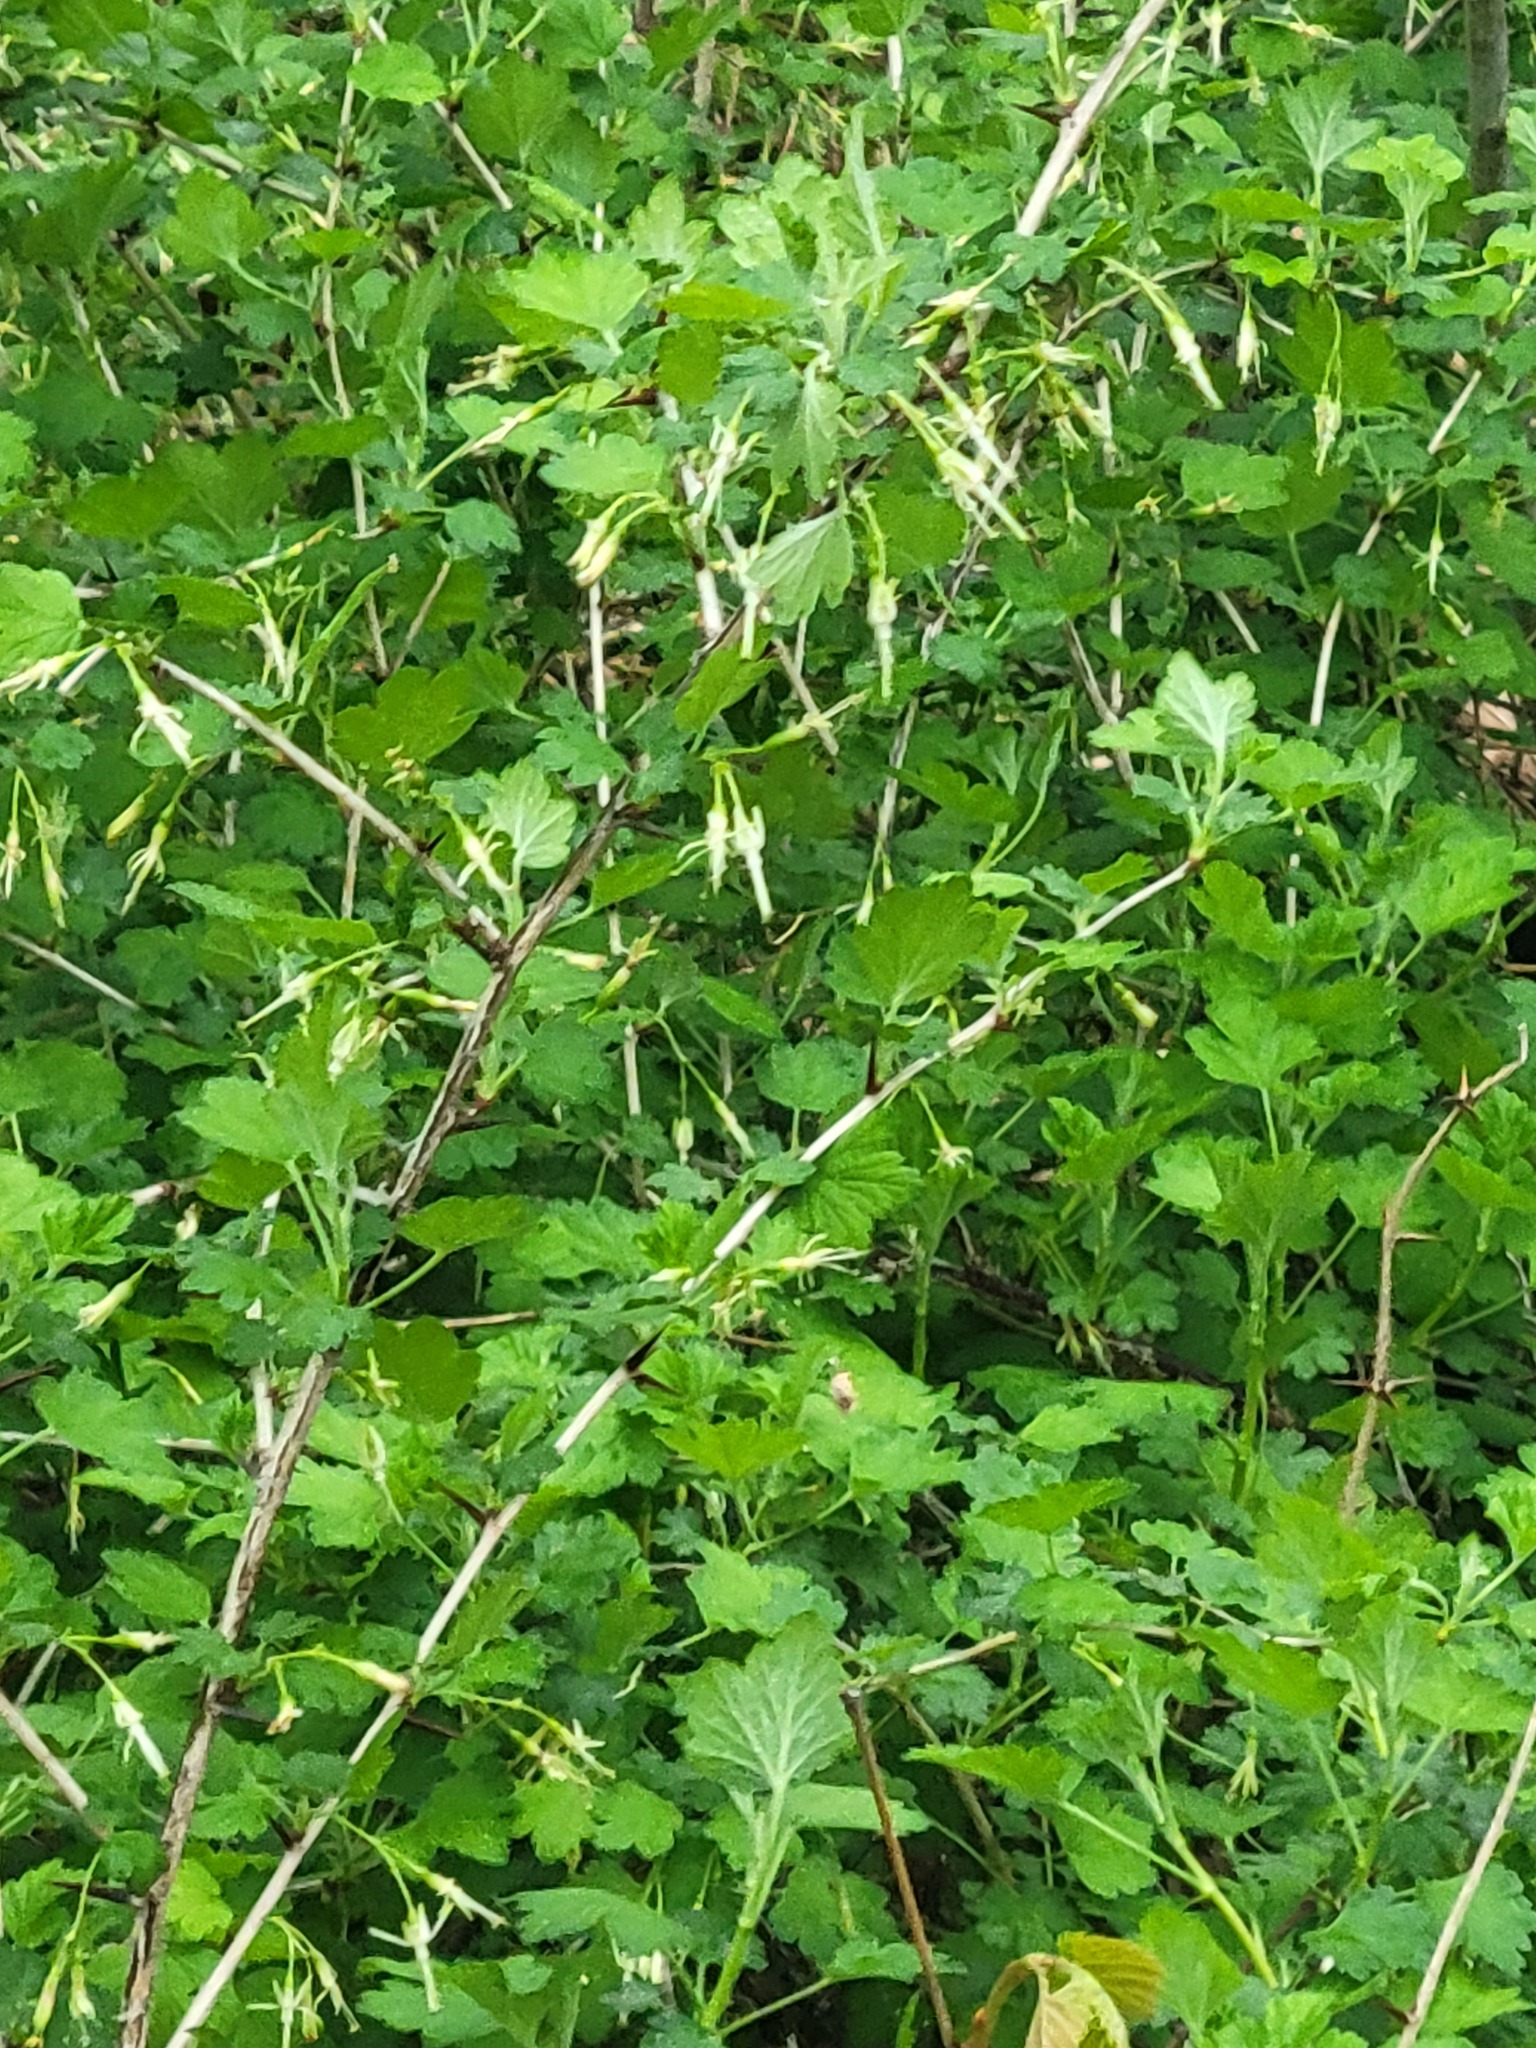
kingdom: Plantae
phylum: Tracheophyta
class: Magnoliopsida
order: Saxifragales
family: Grossulariaceae
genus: Ribes
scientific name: Ribes missouriense
